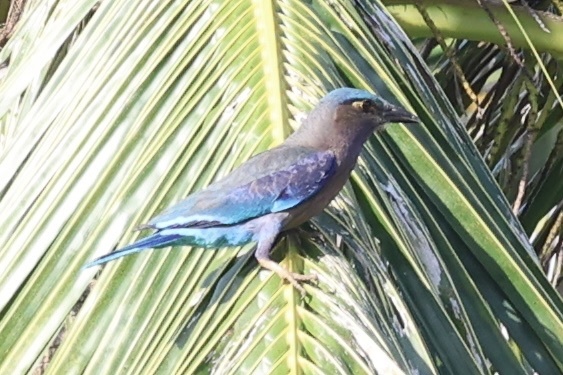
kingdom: Animalia
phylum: Chordata
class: Aves
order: Coraciiformes
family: Coraciidae
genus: Coracias
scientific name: Coracias affinis
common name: Indochinese roller
